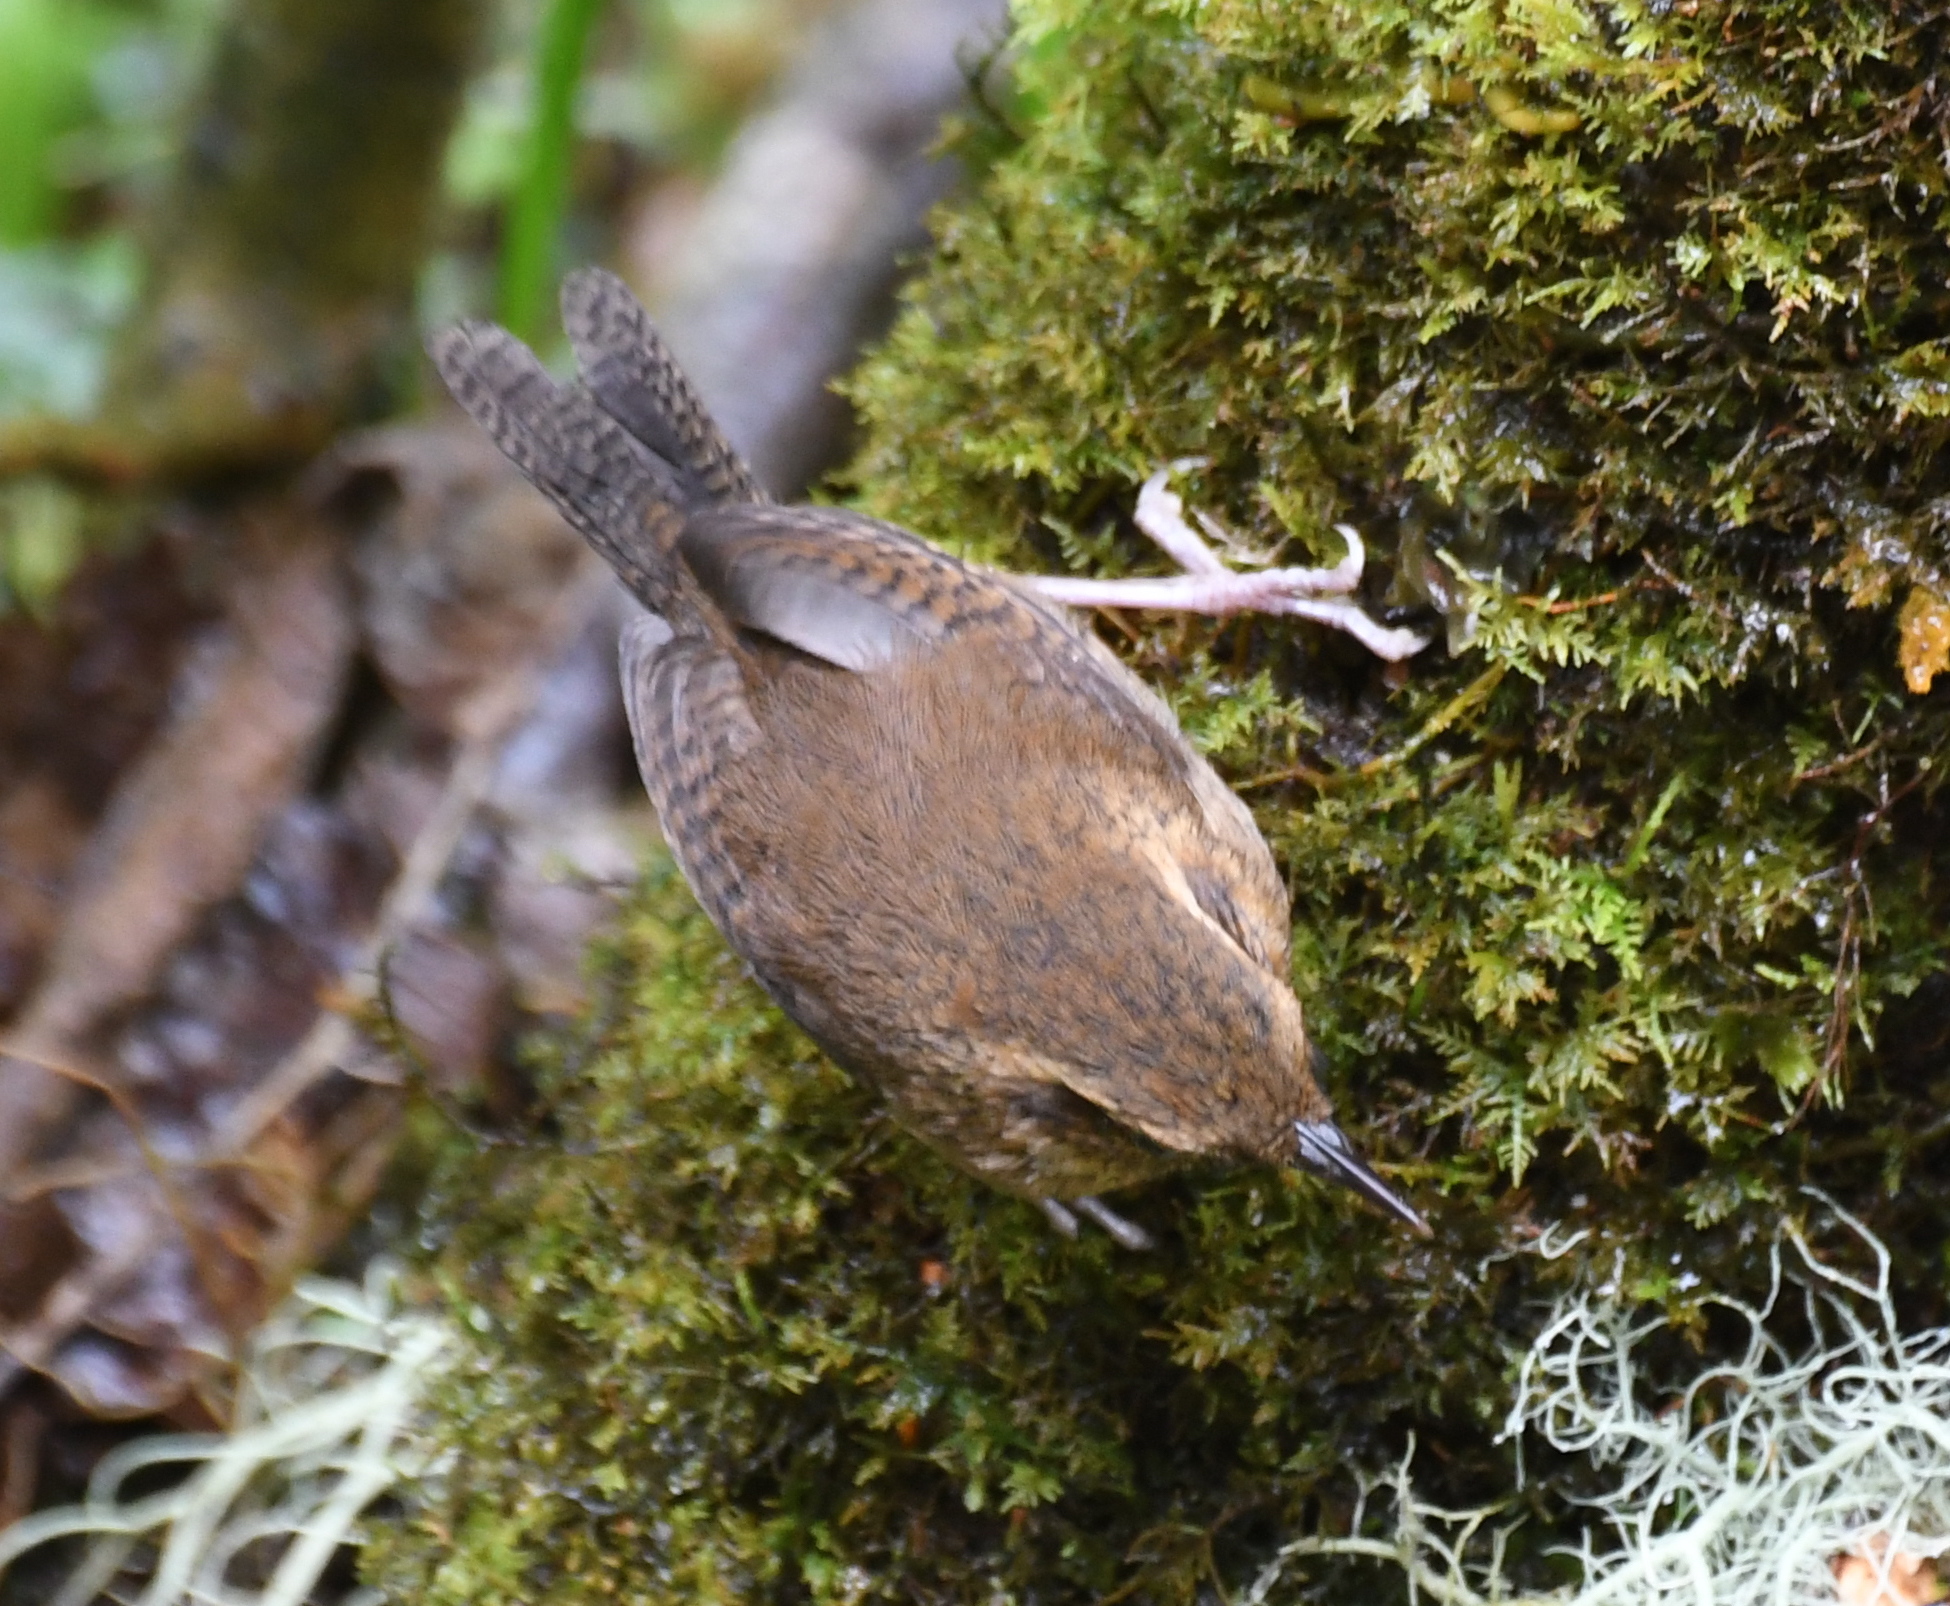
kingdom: Animalia
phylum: Chordata
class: Aves
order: Passeriformes
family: Troglodytidae
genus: Troglodytes
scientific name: Troglodytes solstitialis
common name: Mountain wren
